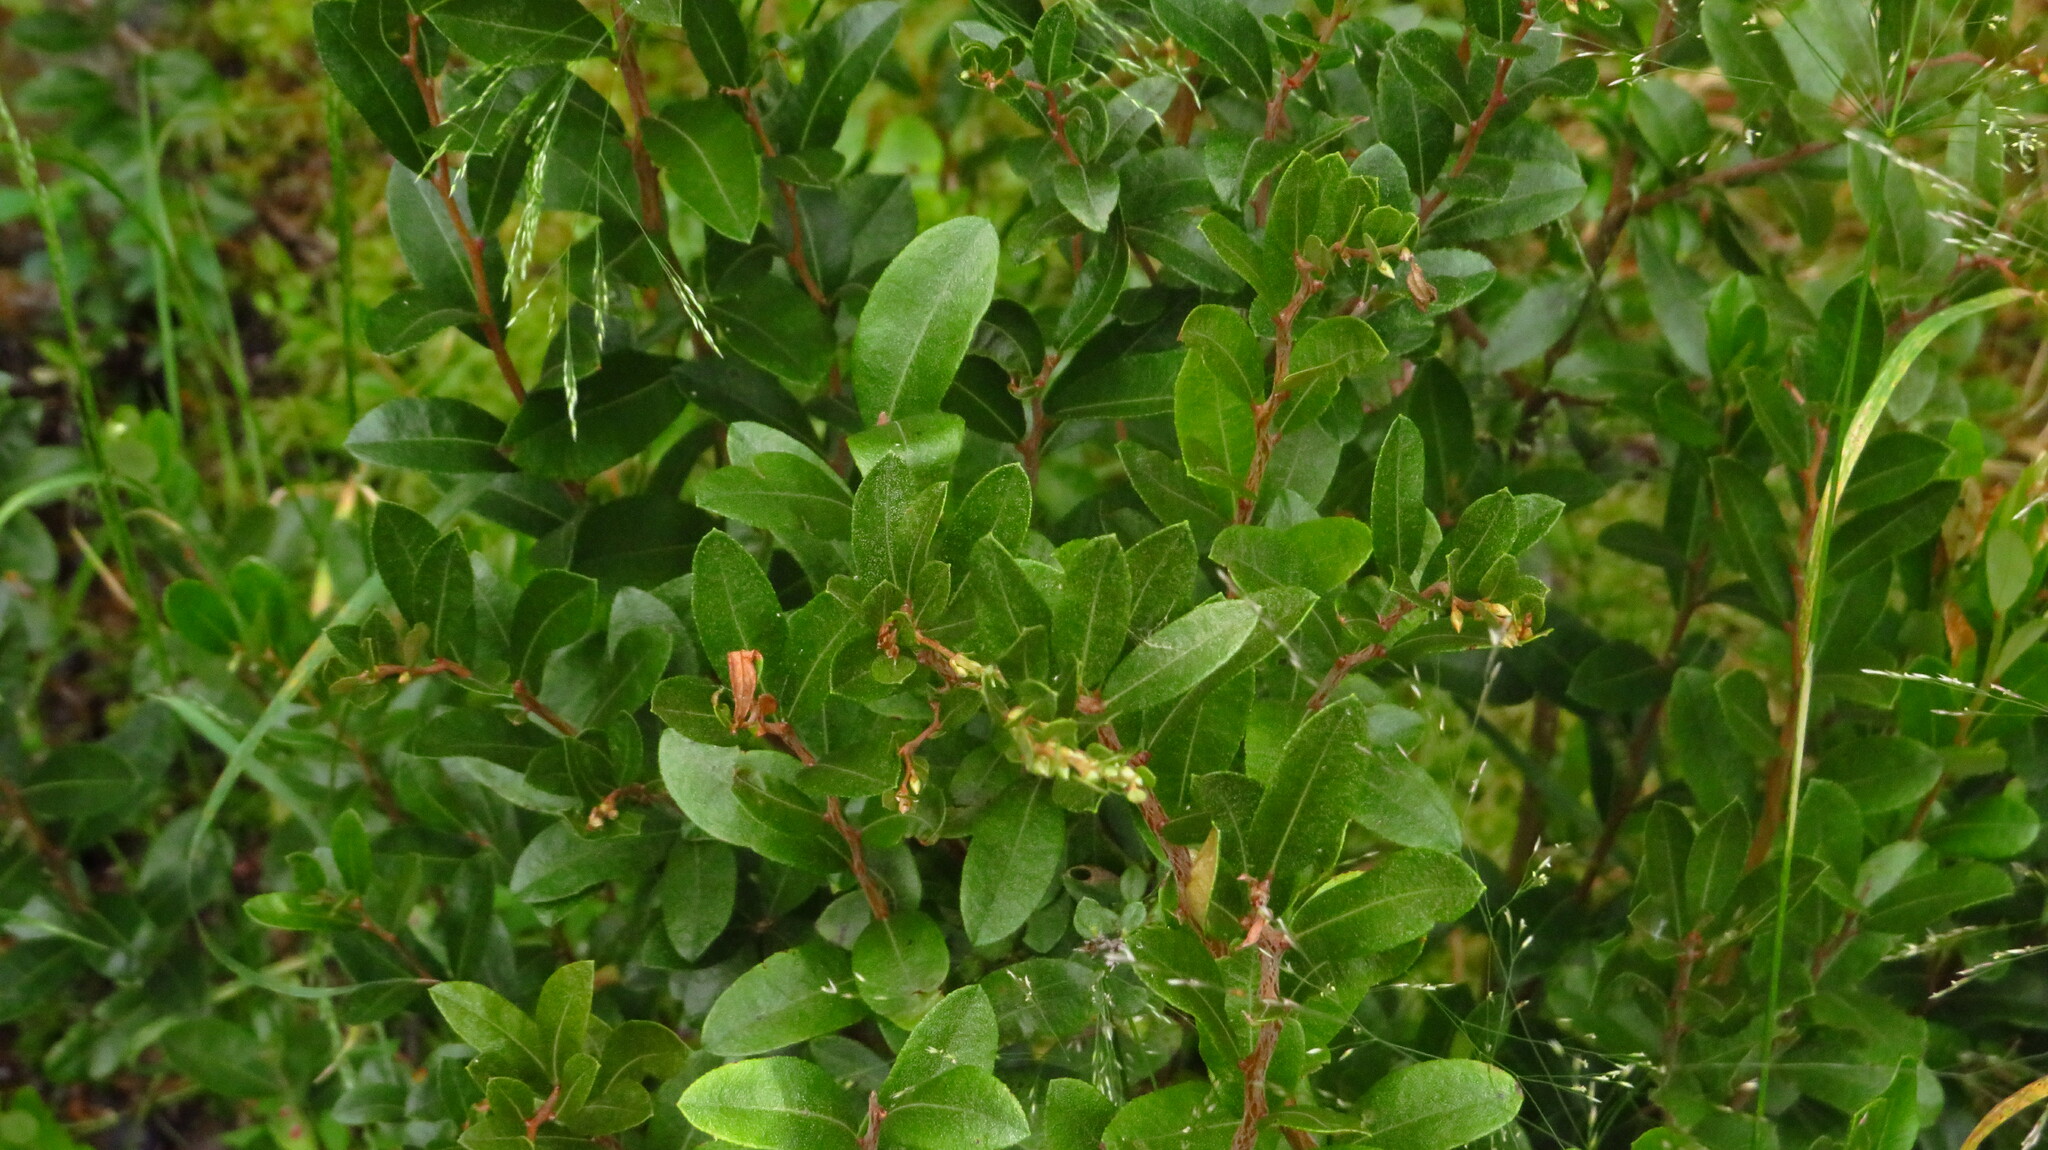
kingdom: Plantae
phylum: Tracheophyta
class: Magnoliopsida
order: Ericales
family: Ericaceae
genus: Chamaedaphne
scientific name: Chamaedaphne calyculata
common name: Leatherleaf
